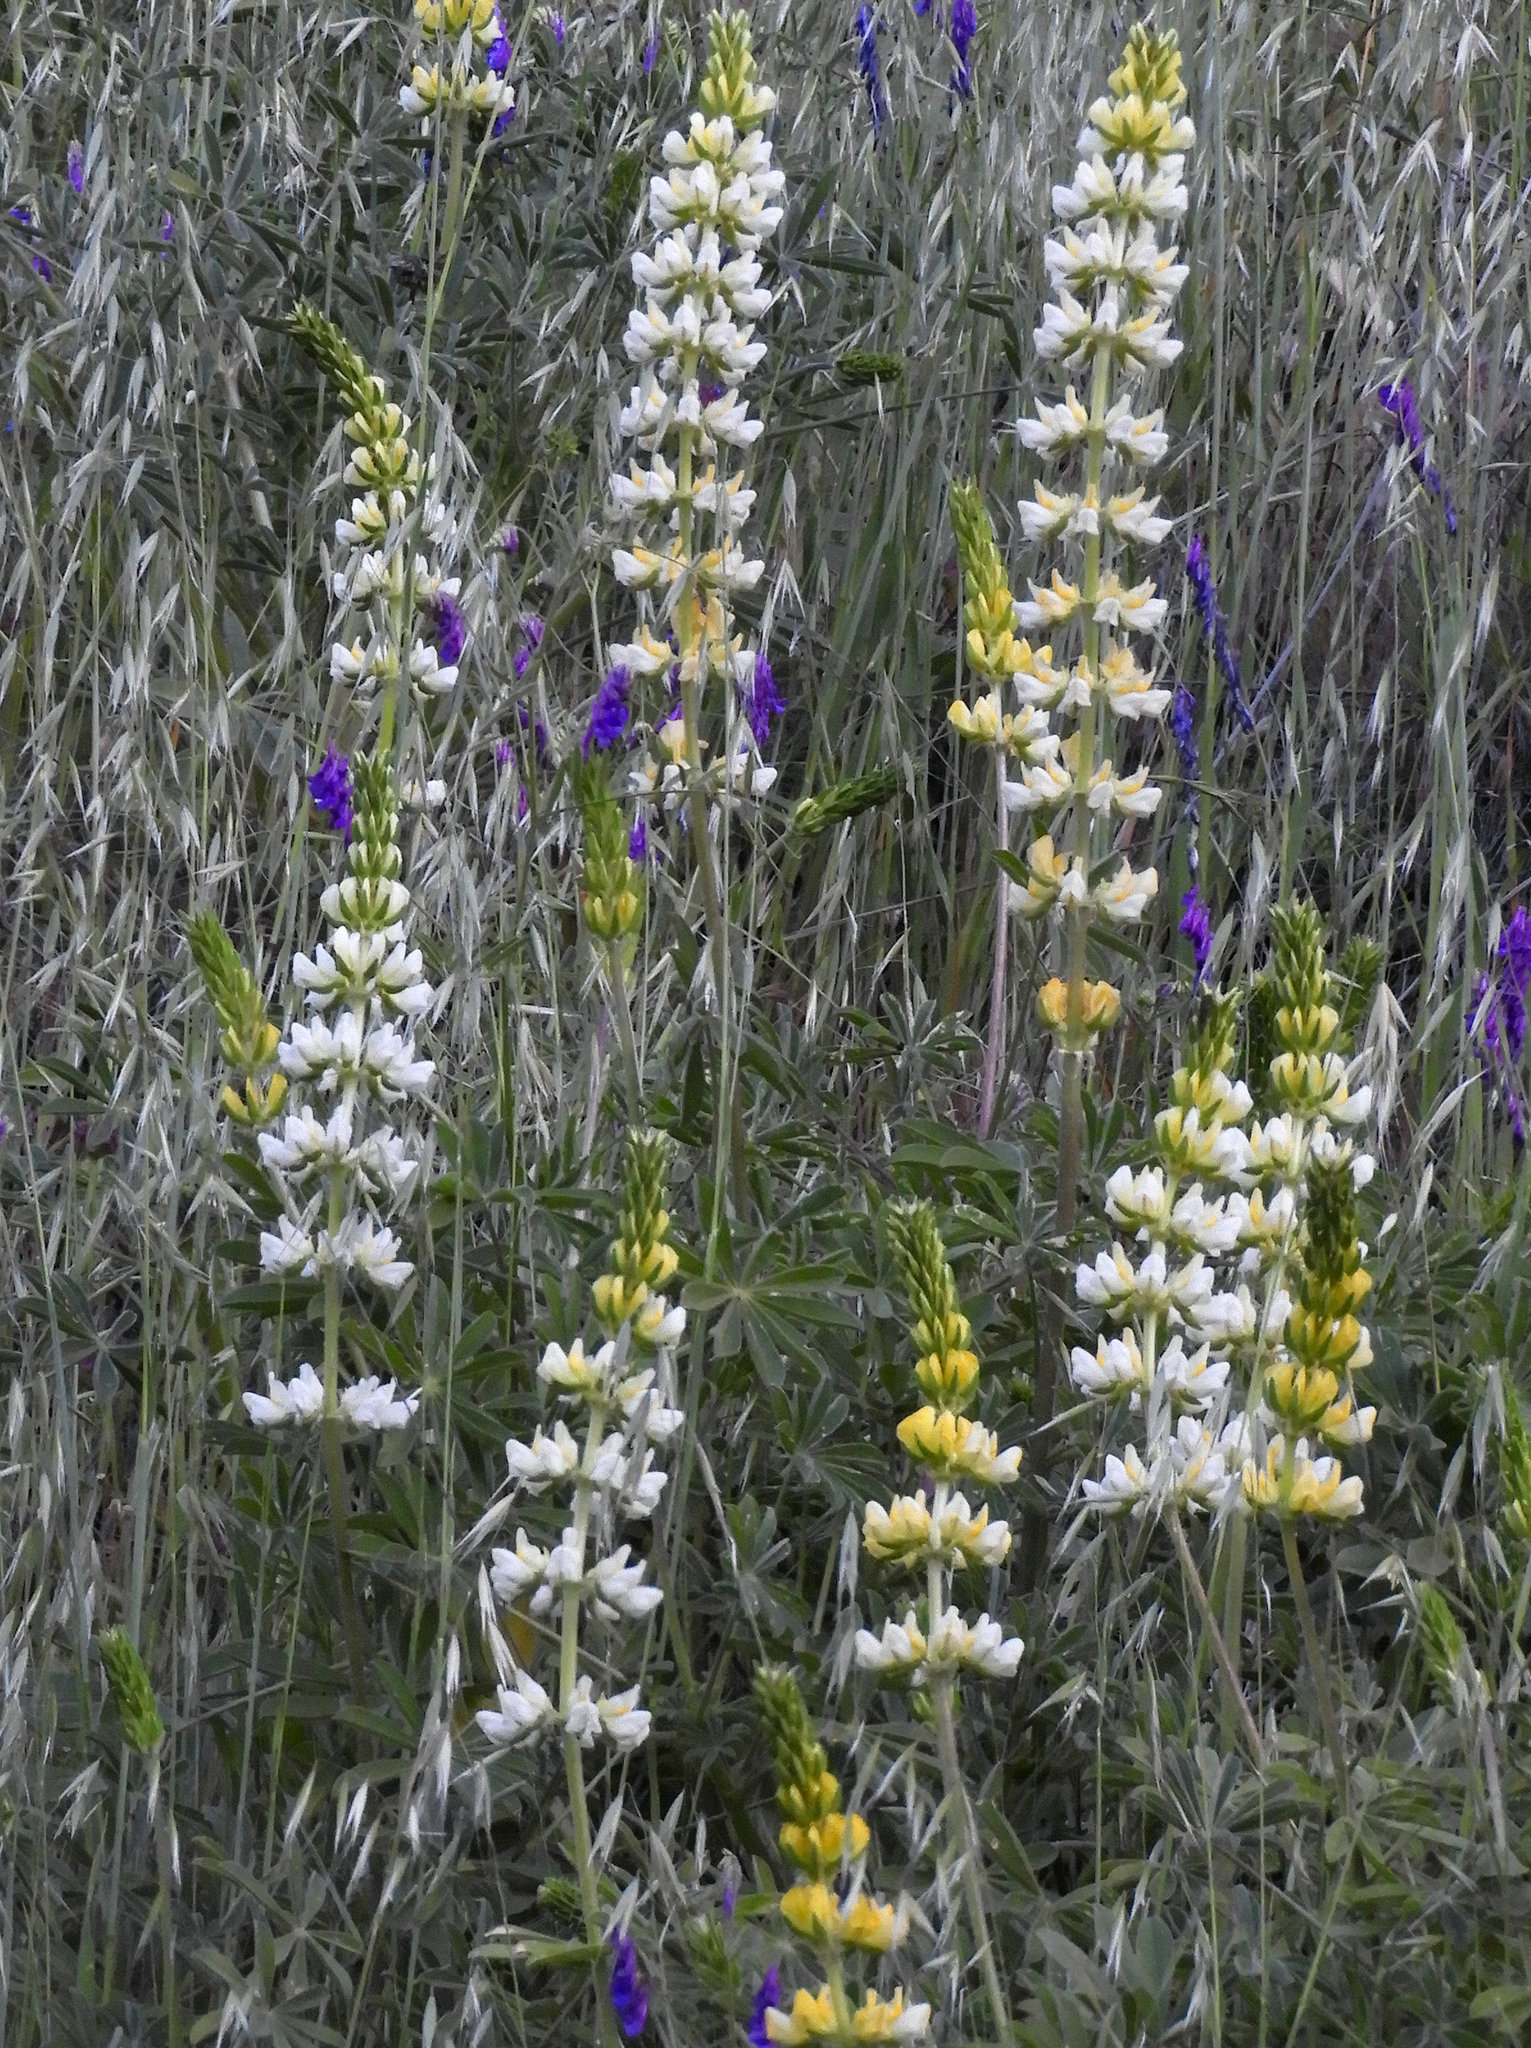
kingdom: Plantae
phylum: Tracheophyta
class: Magnoliopsida
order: Fabales
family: Fabaceae
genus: Lupinus
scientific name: Lupinus microcarpus
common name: Chick lupine
